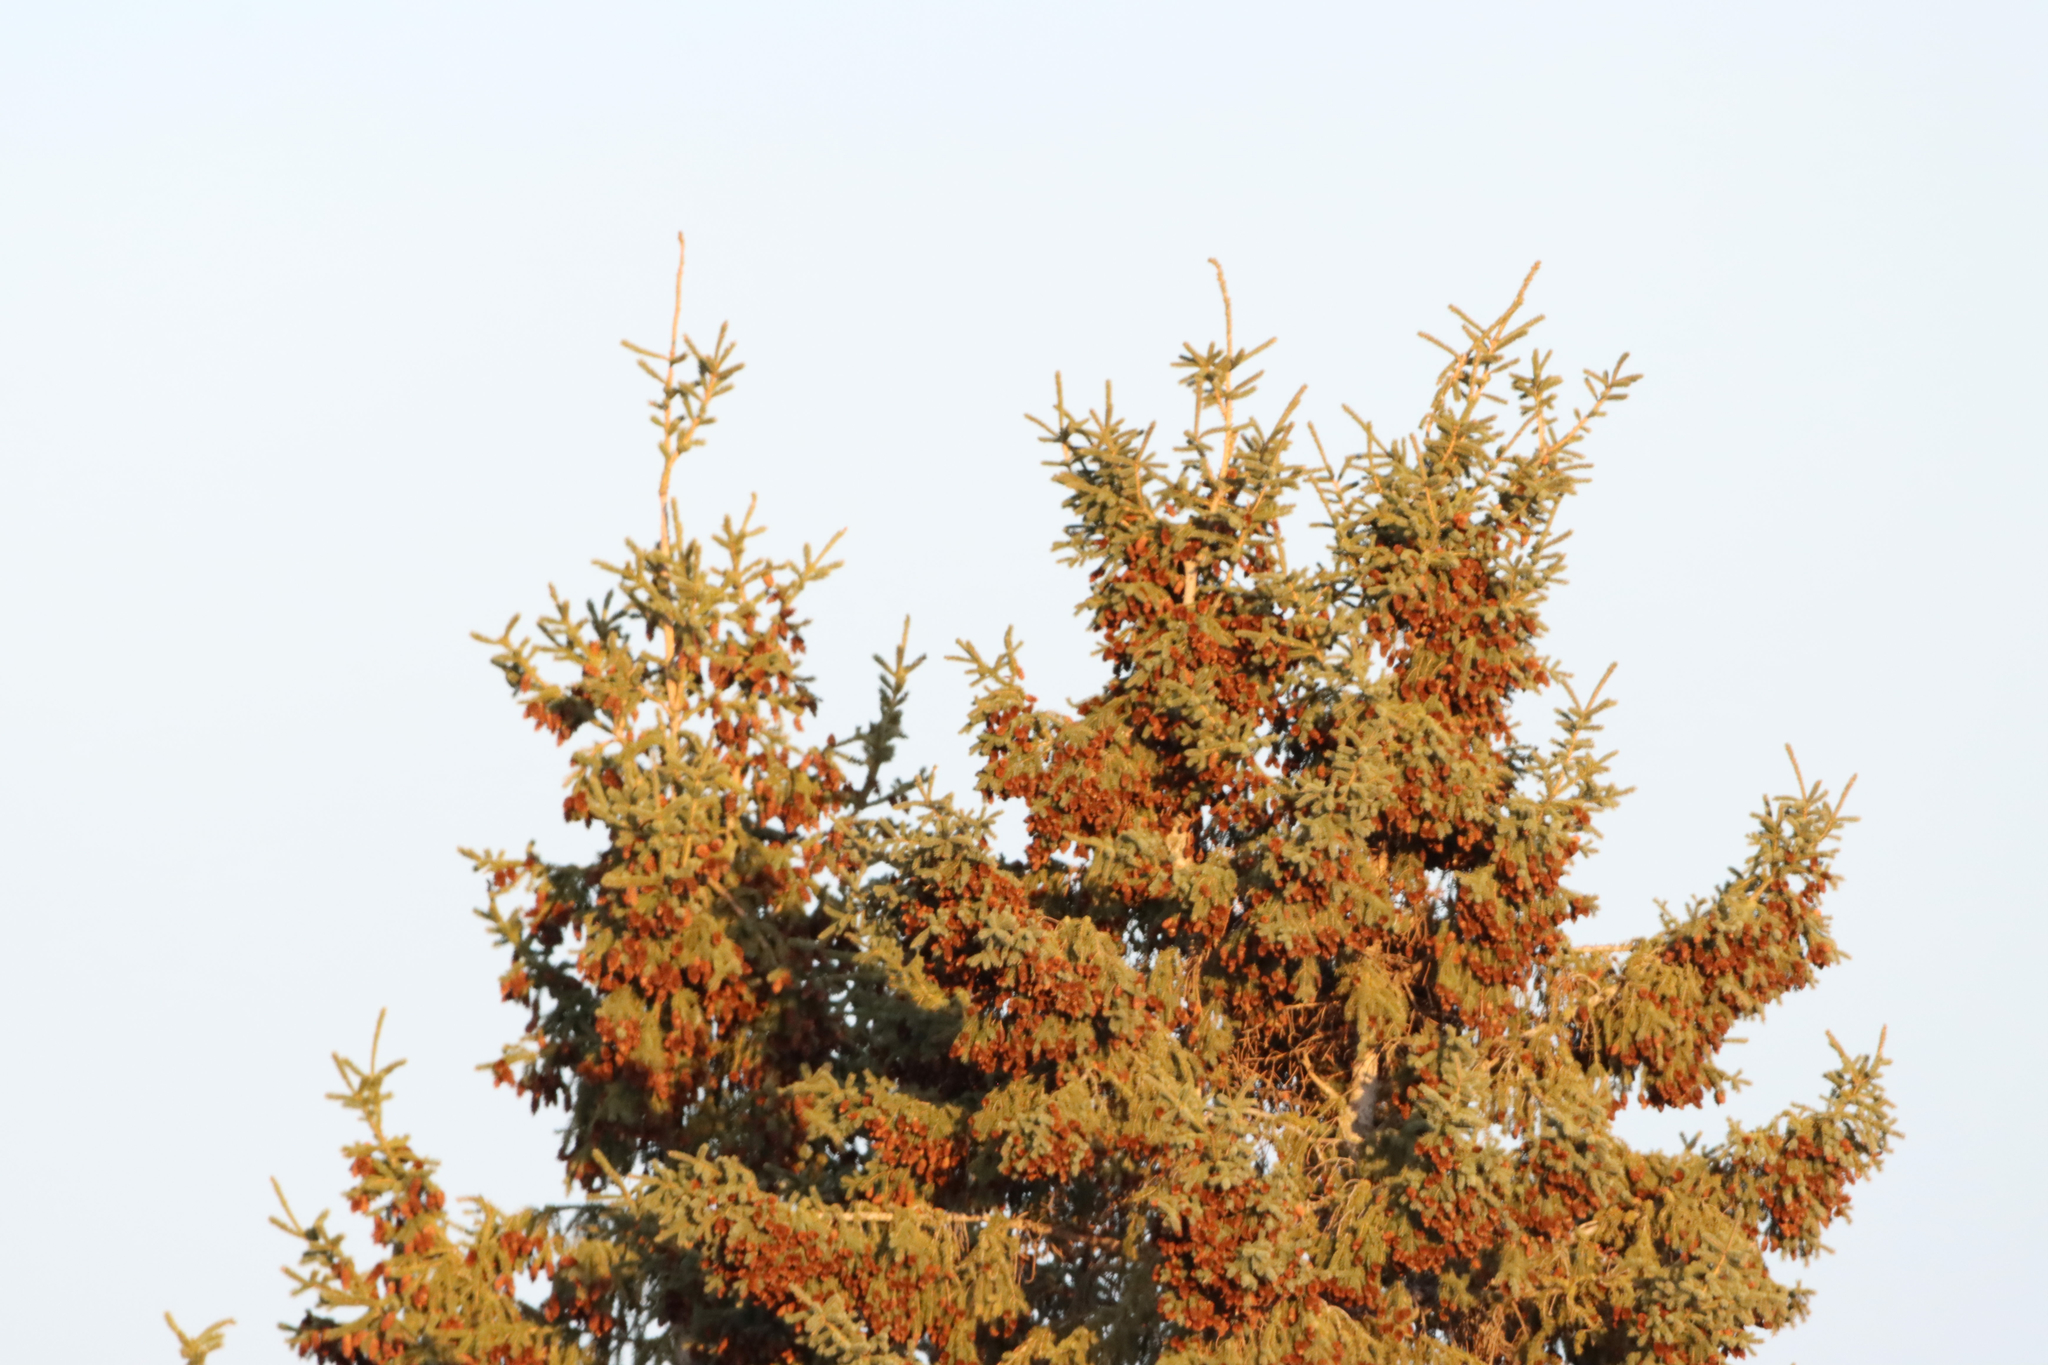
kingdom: Plantae
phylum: Tracheophyta
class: Pinopsida
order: Pinales
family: Pinaceae
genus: Picea
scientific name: Picea glauca
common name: White spruce
